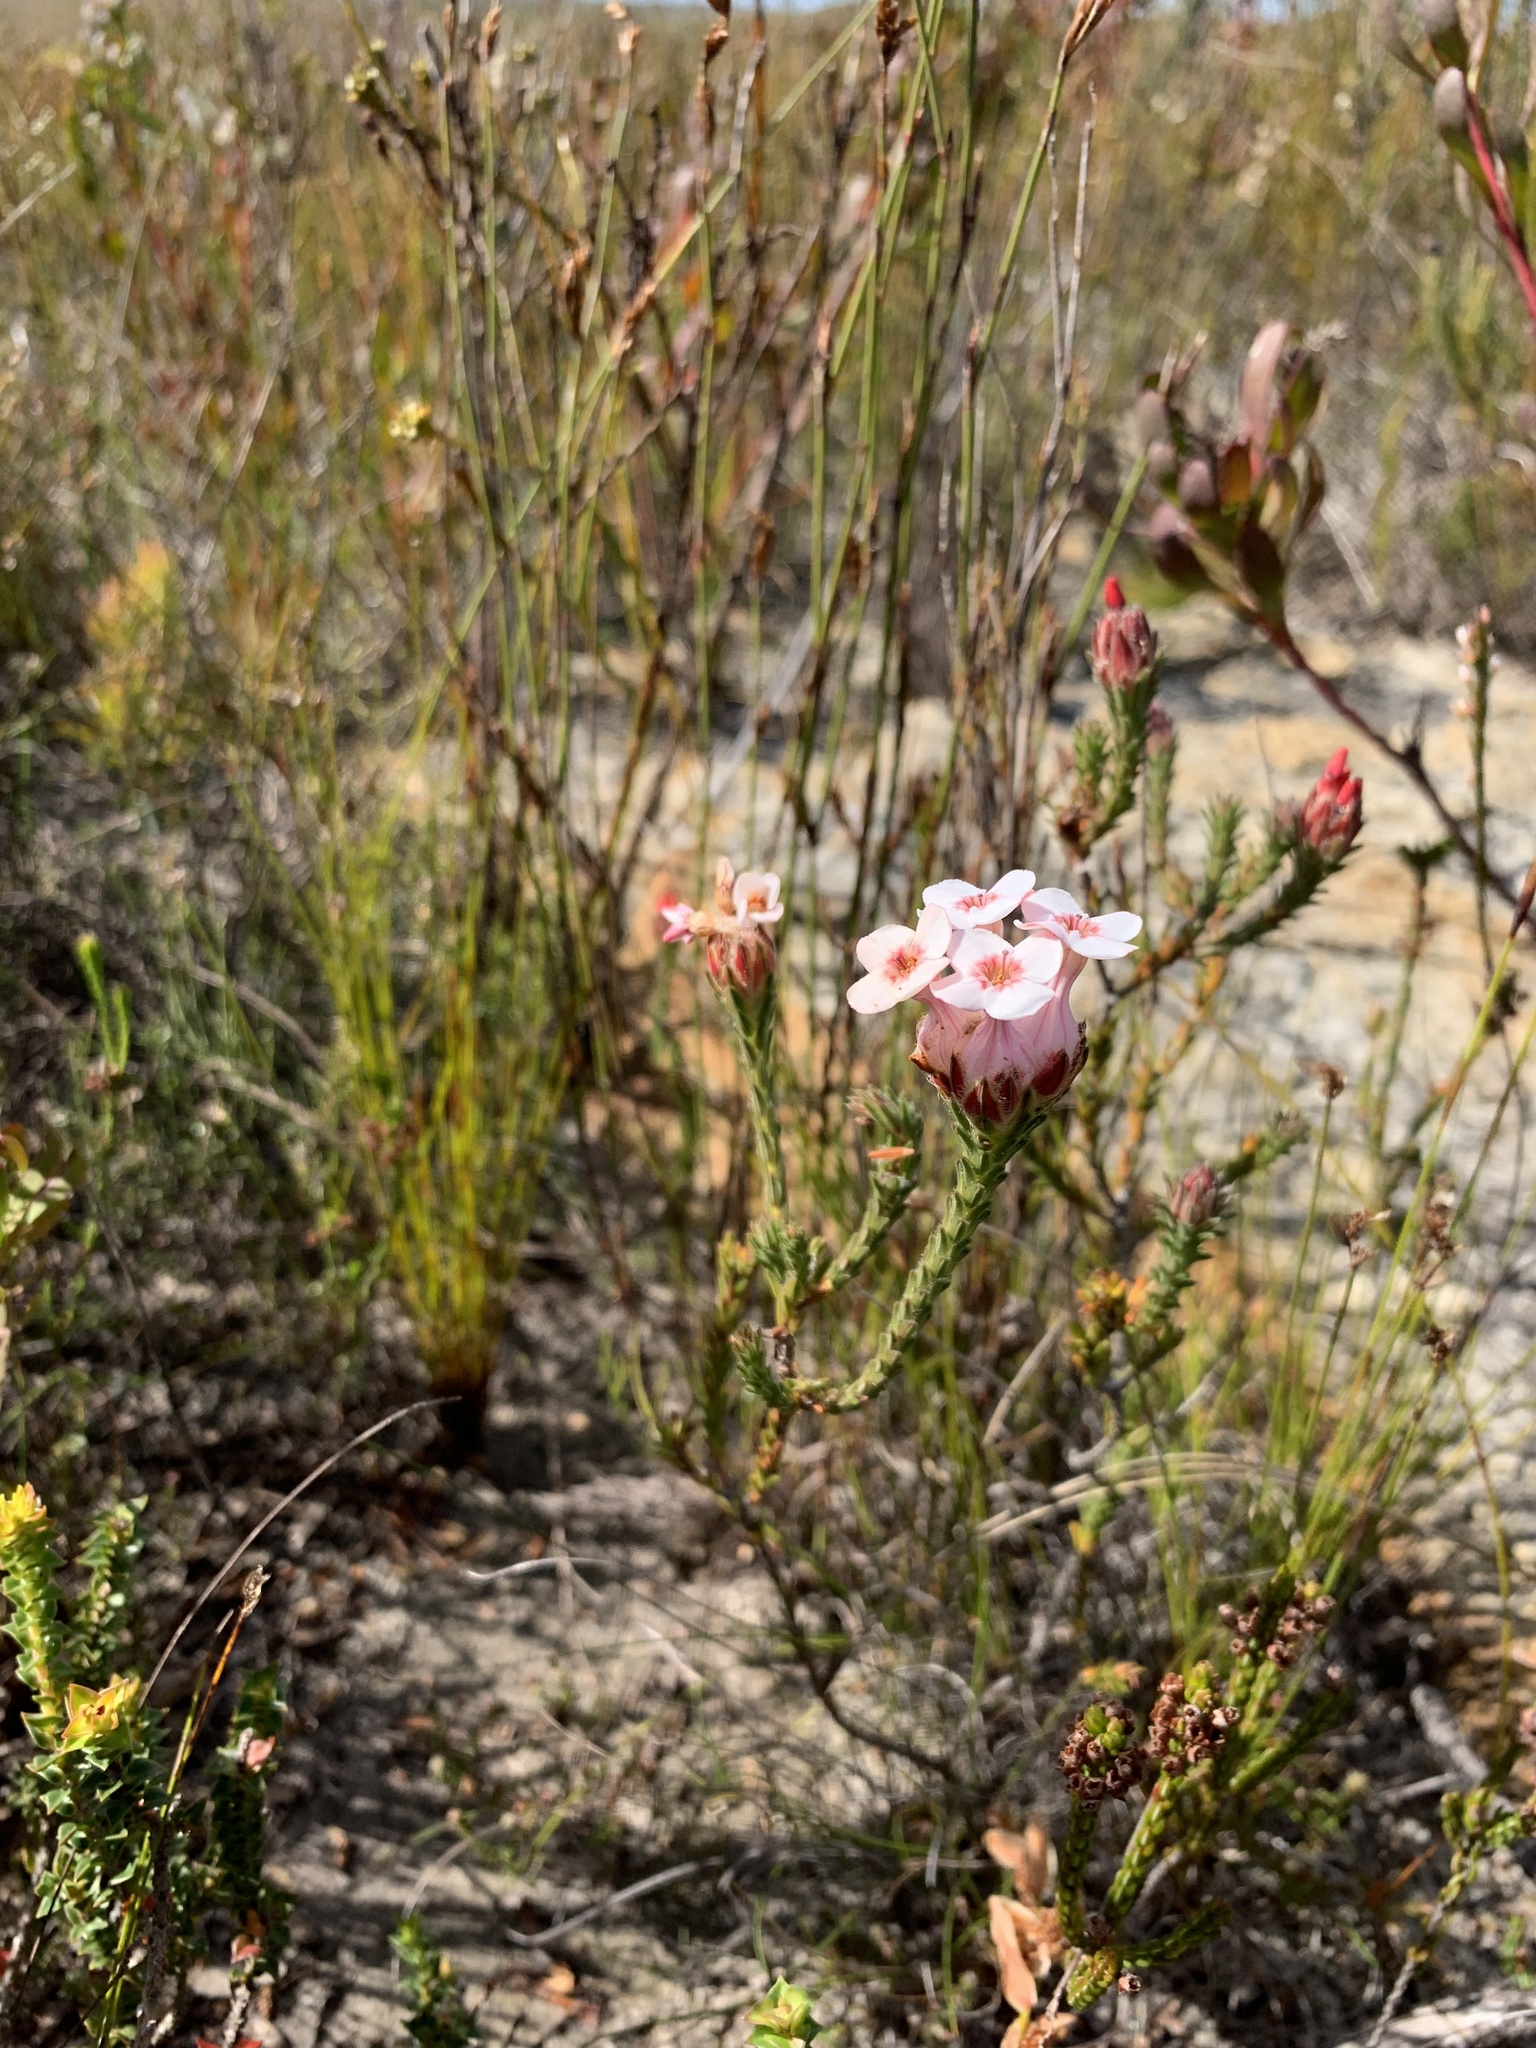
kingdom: Plantae
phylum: Tracheophyta
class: Magnoliopsida
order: Ericales
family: Ericaceae
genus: Erica
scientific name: Erica ampullacea
